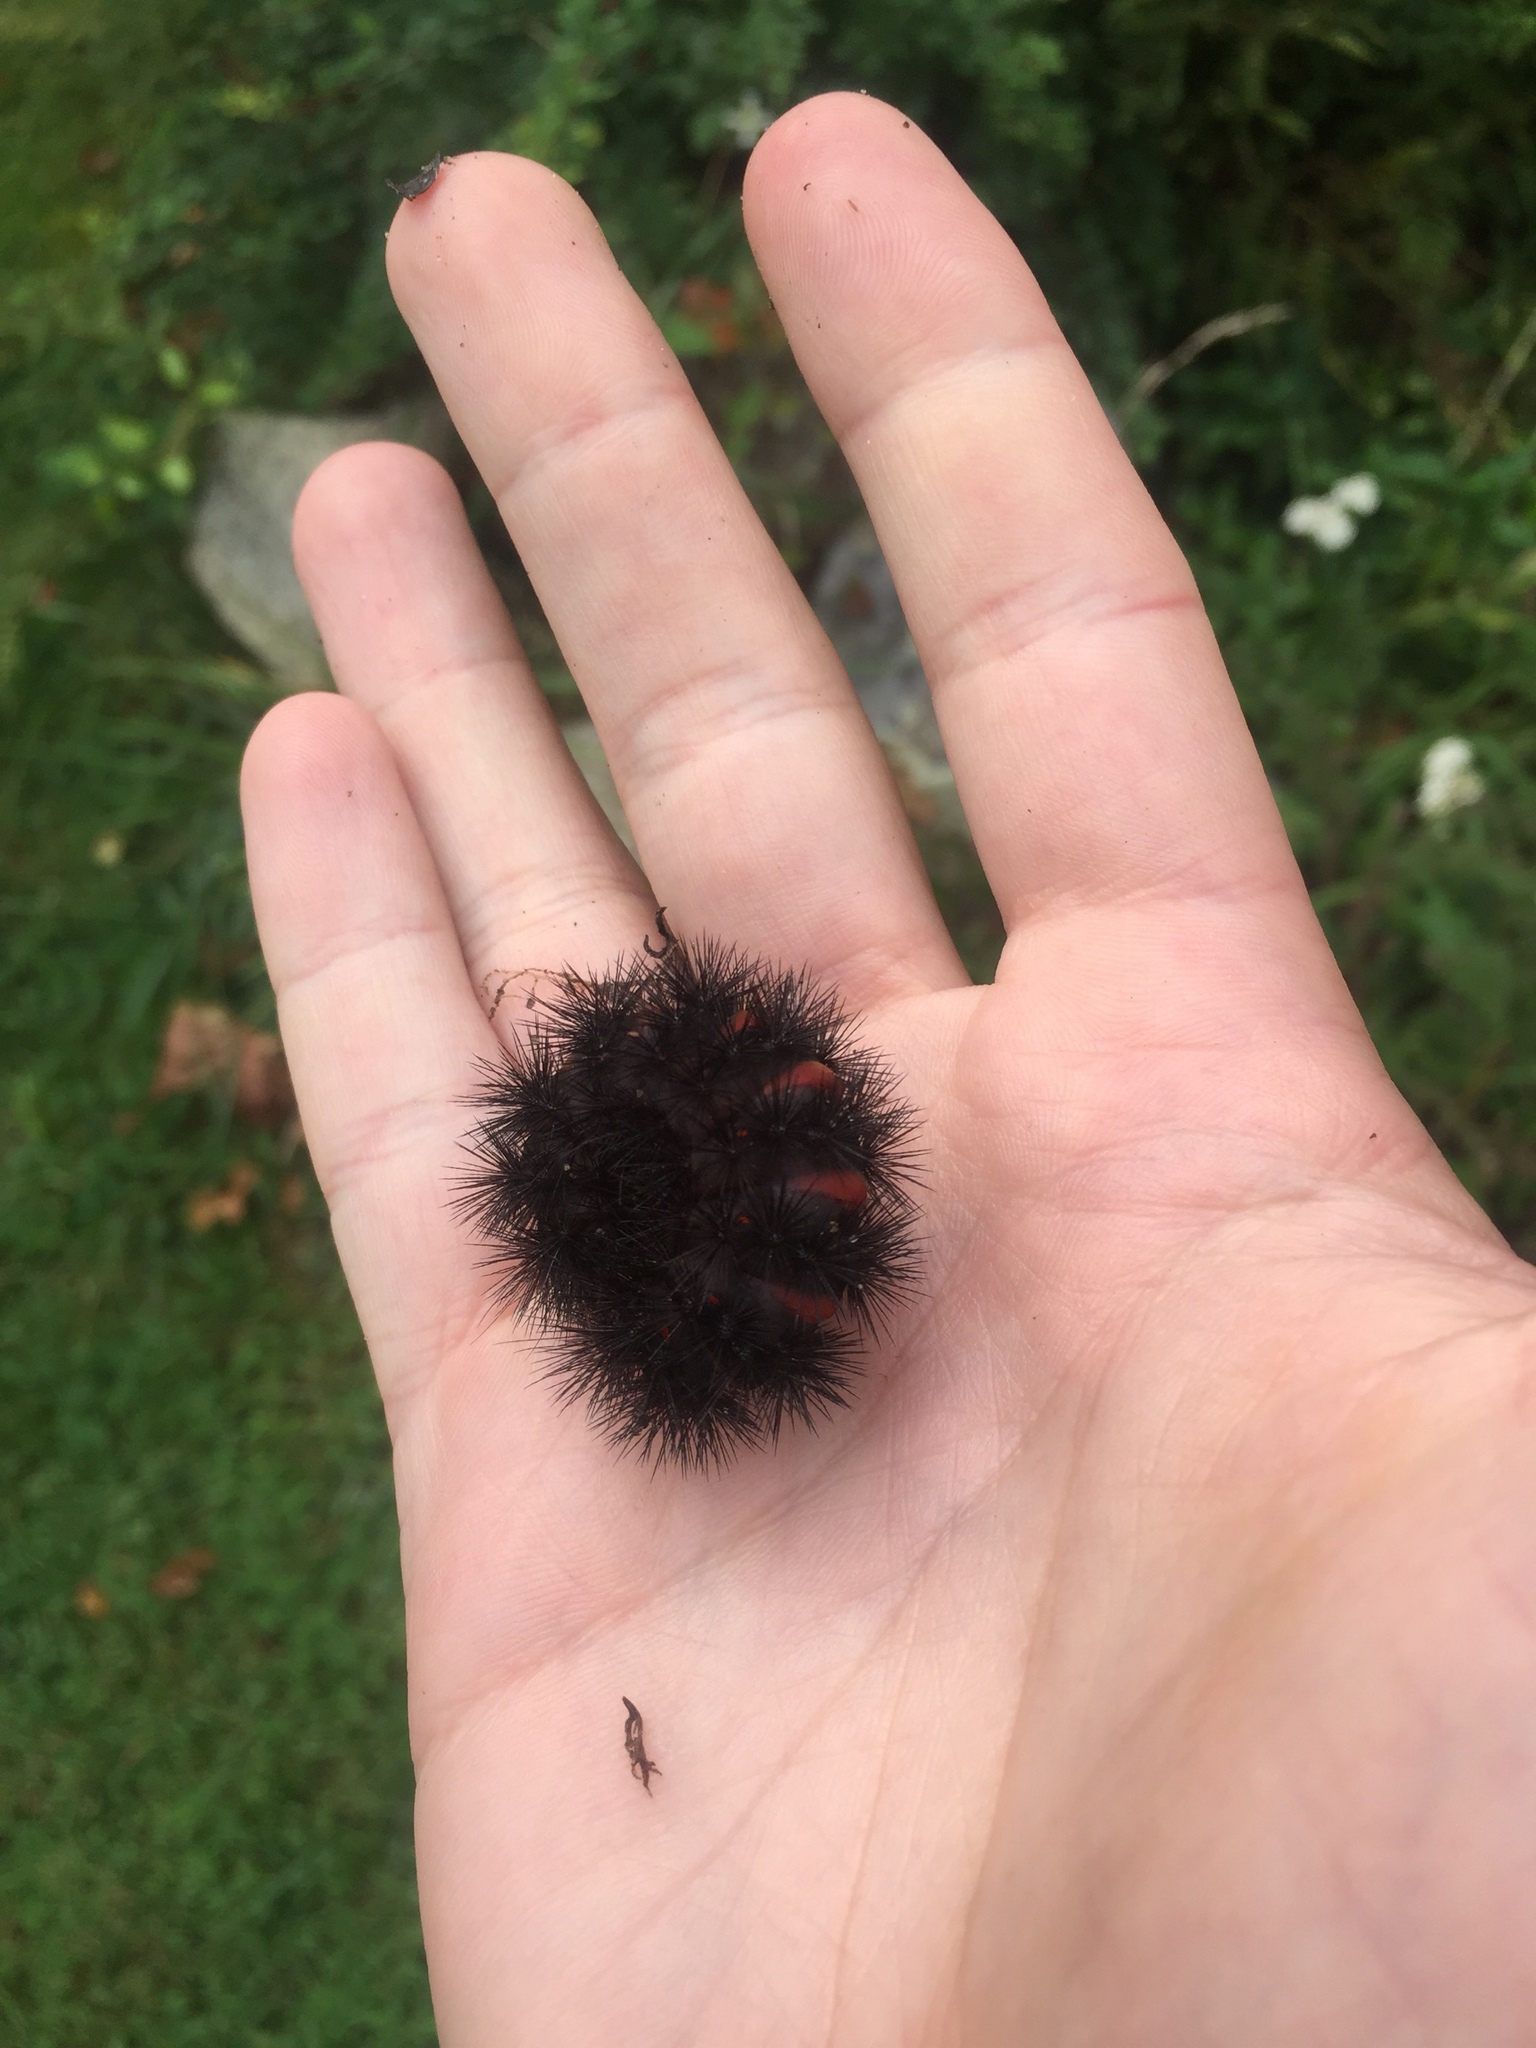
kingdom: Animalia
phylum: Arthropoda
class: Insecta
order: Lepidoptera
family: Erebidae
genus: Hypercompe
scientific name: Hypercompe scribonia
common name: Giant leopard moth
